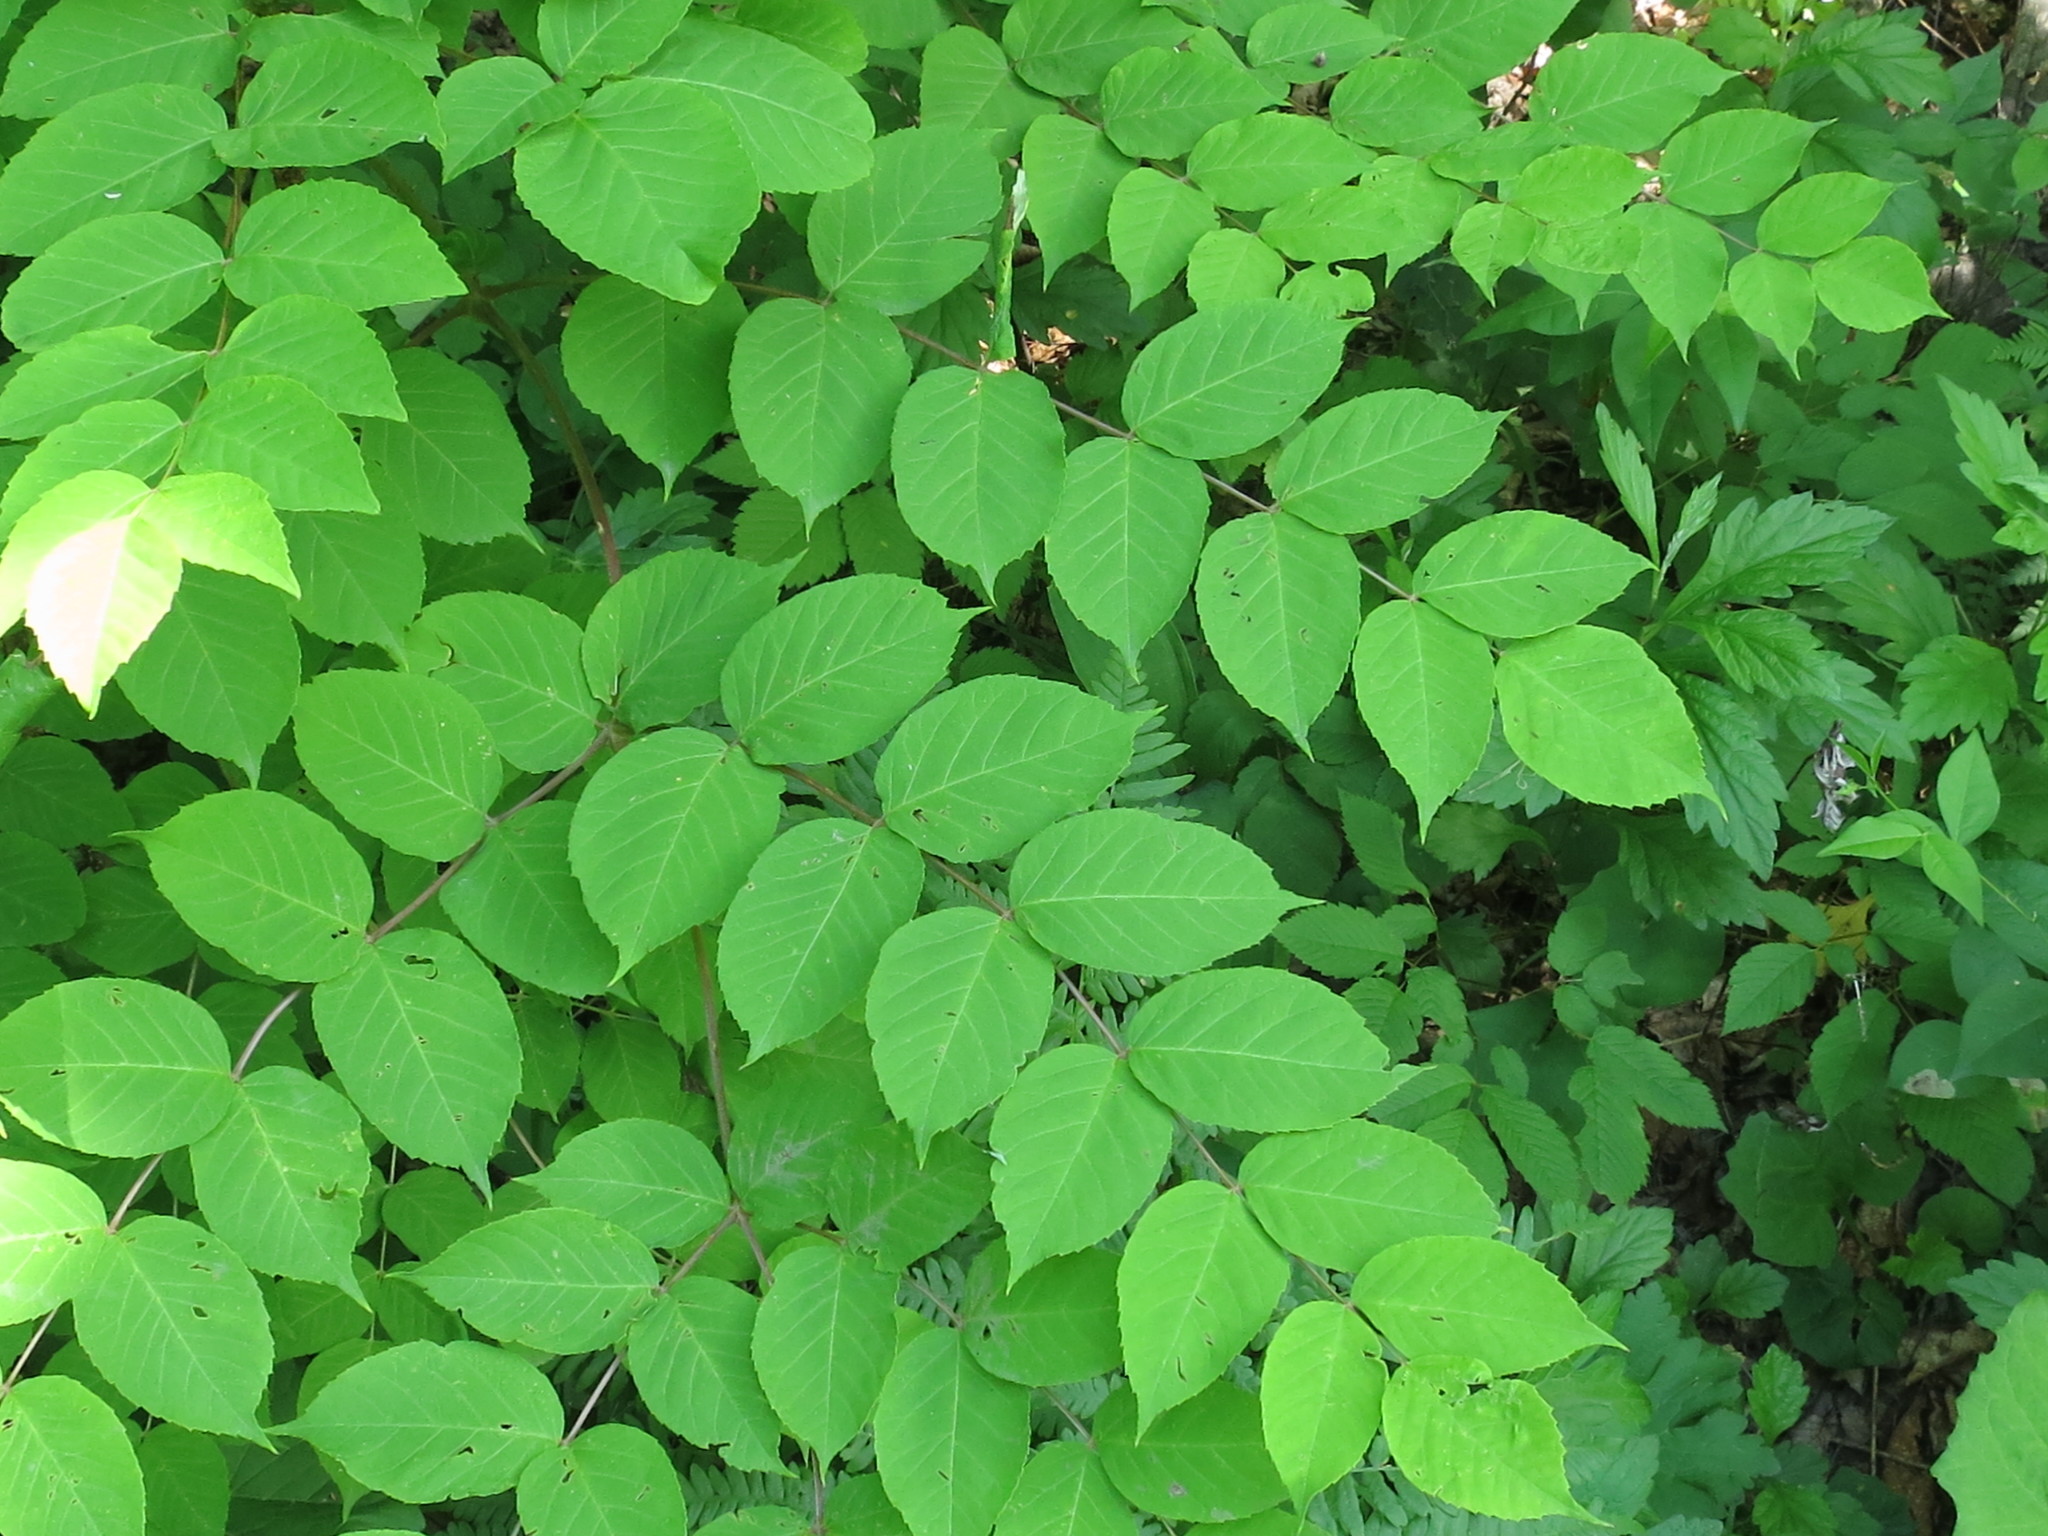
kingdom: Plantae
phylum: Tracheophyta
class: Magnoliopsida
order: Apiales
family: Araliaceae
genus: Aralia
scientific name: Aralia elata
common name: Japanese angelica-tree
